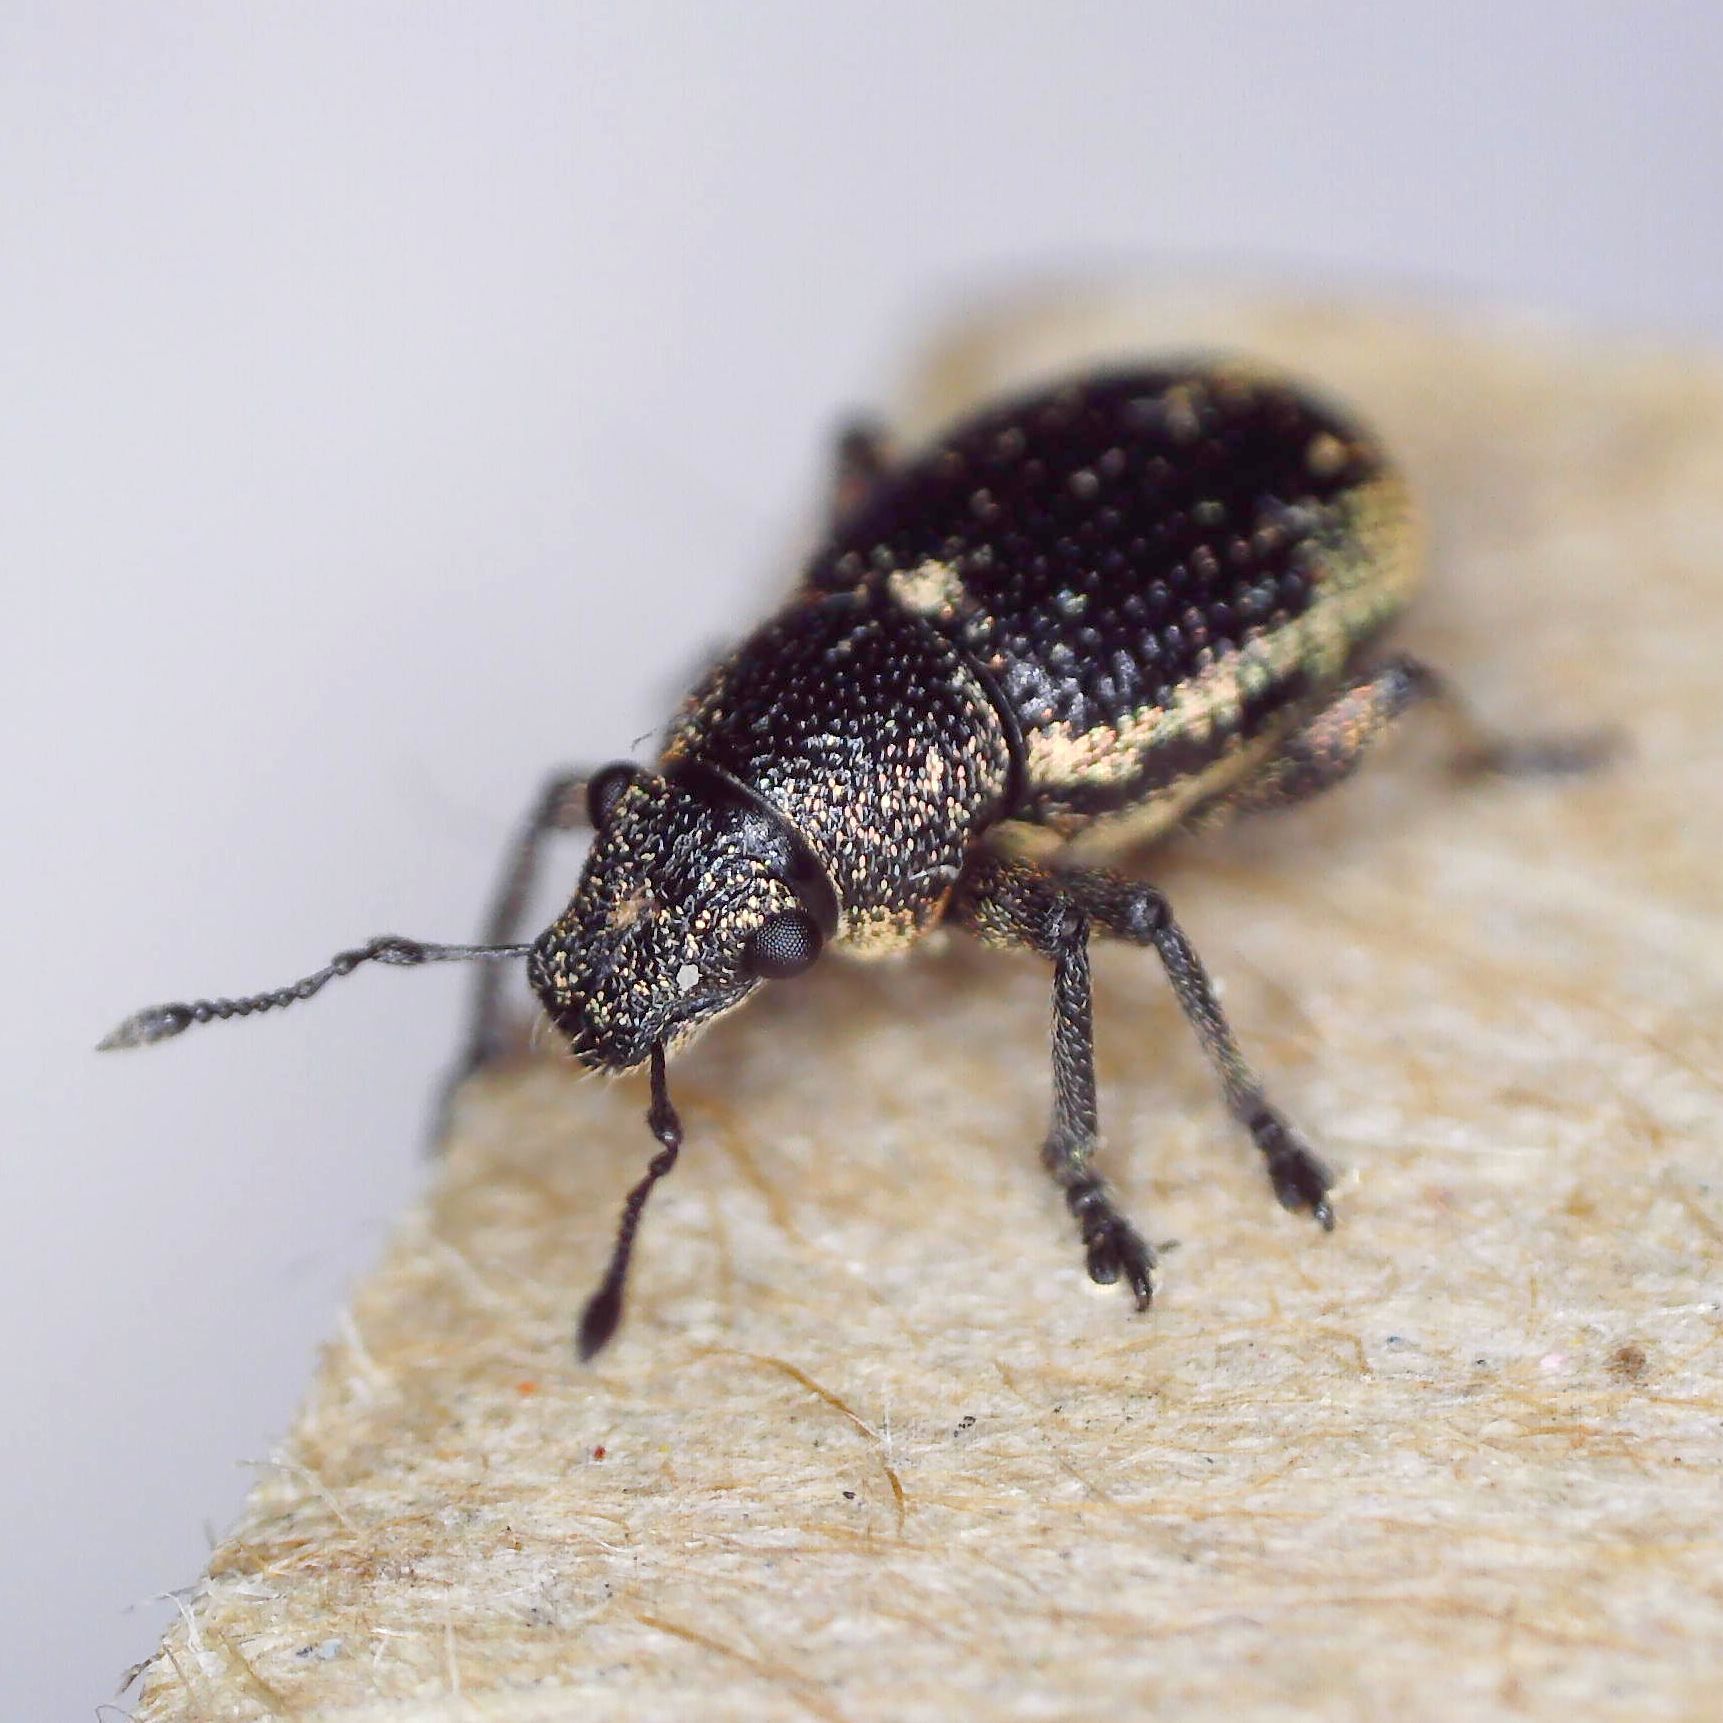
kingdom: Animalia
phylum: Arthropoda
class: Insecta
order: Coleoptera
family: Curculionidae
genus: Strophosoma
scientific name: Strophosoma sus
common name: Heather weevil
